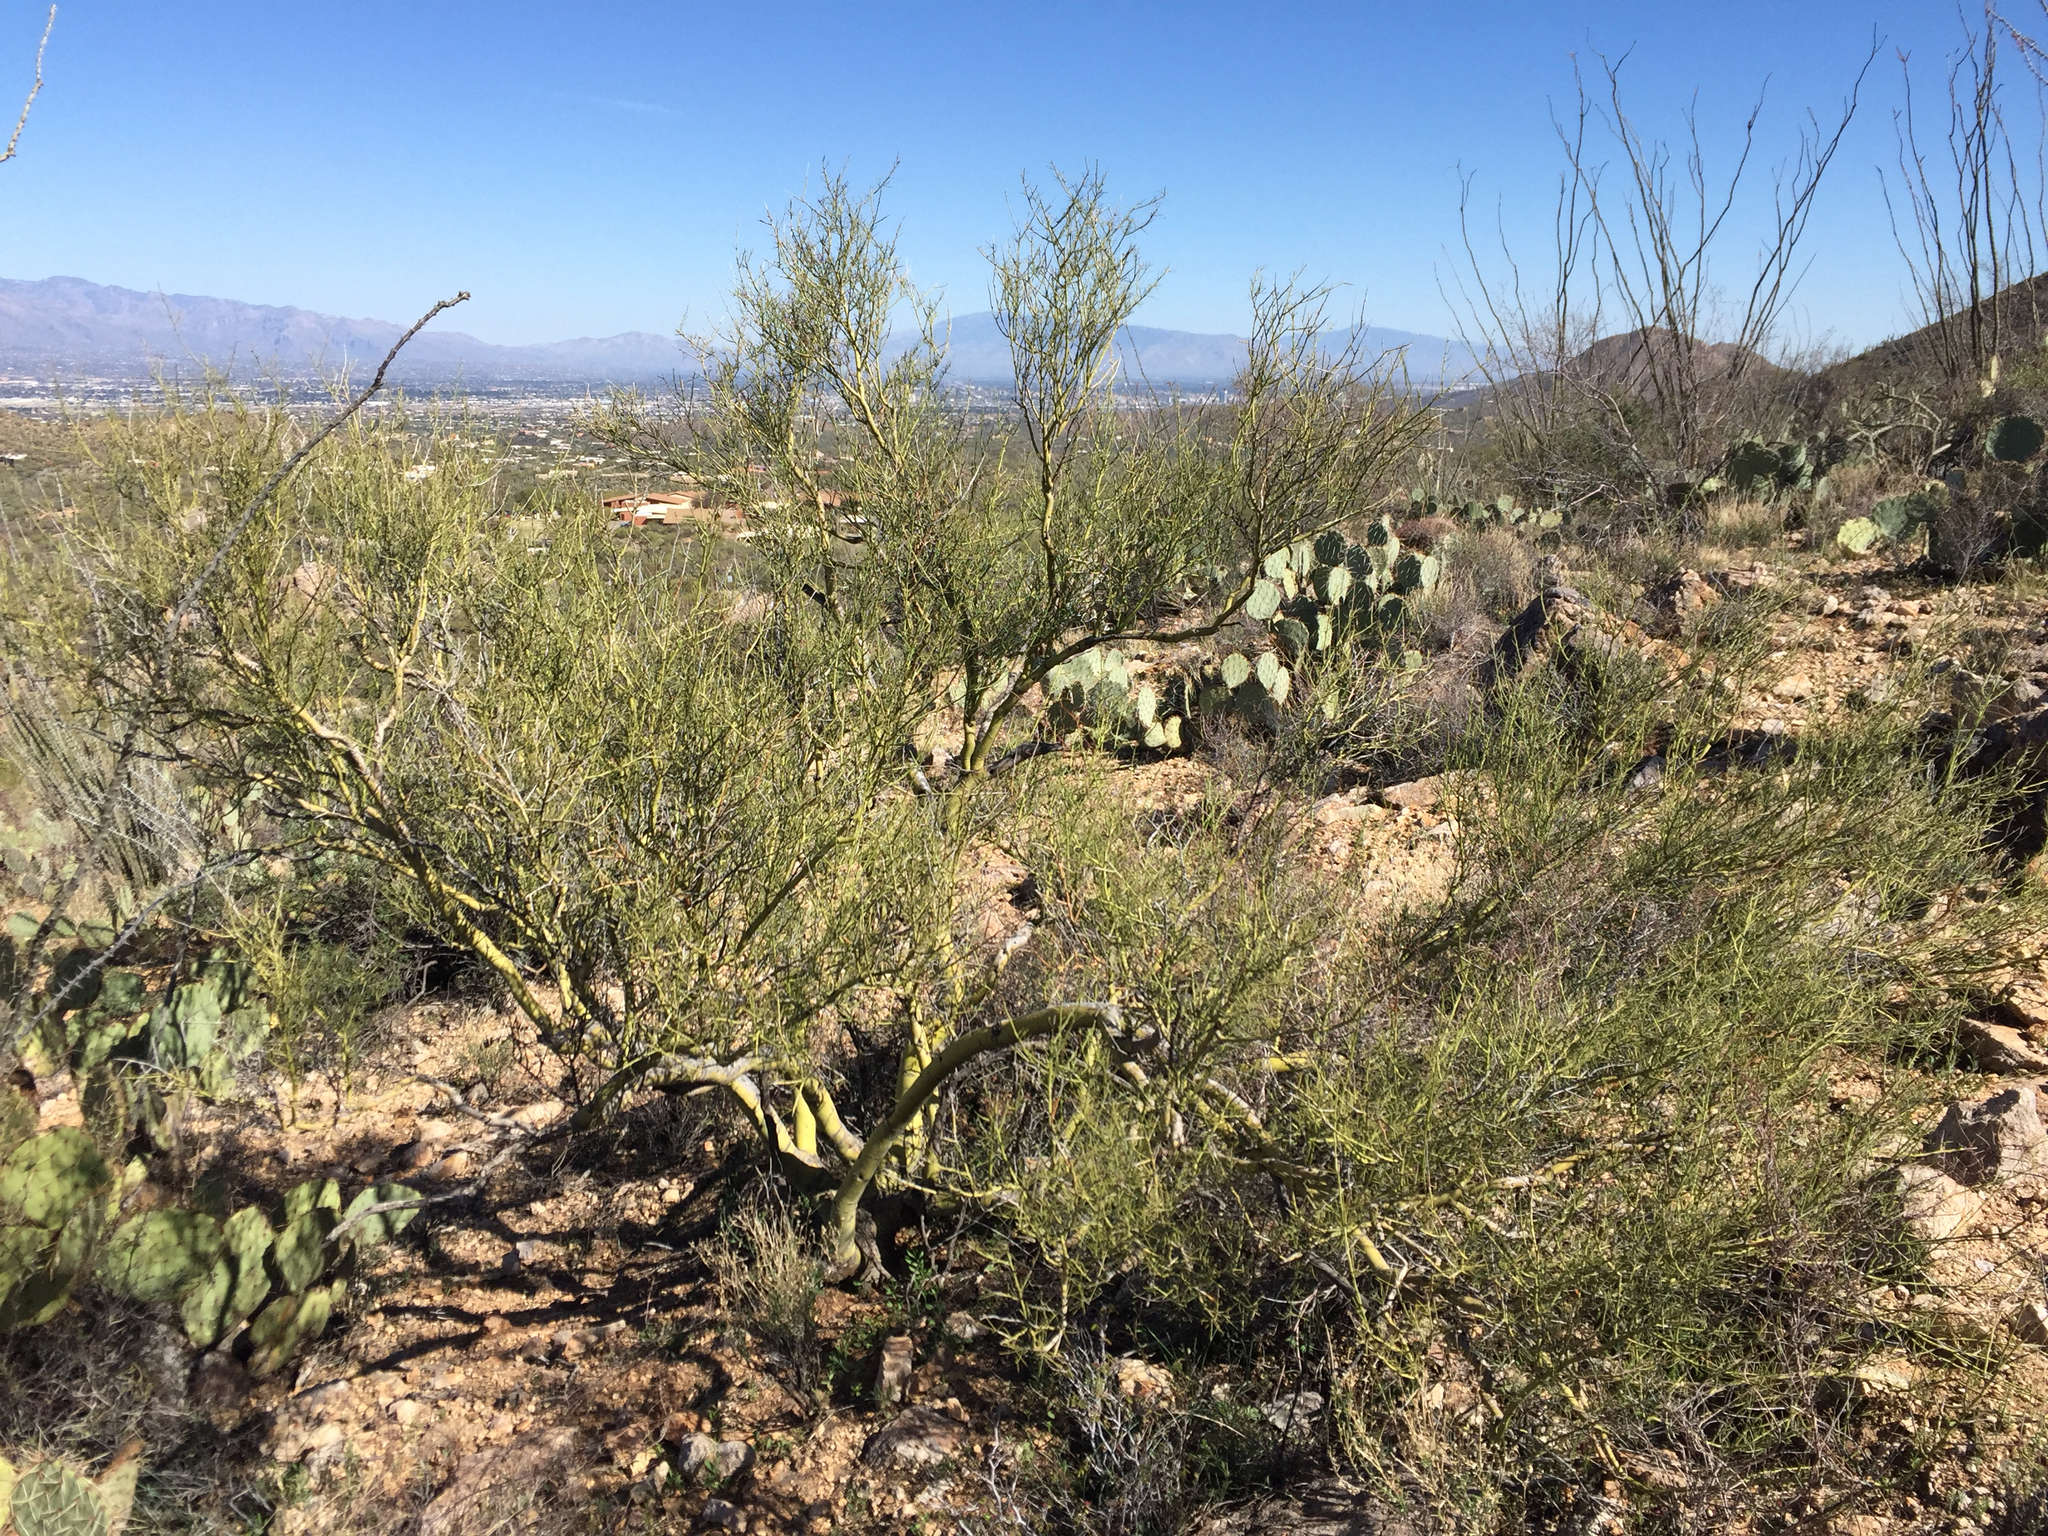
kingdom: Plantae
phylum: Tracheophyta
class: Magnoliopsida
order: Fabales
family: Fabaceae
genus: Parkinsonia
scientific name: Parkinsonia microphylla
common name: Yellow paloverde
